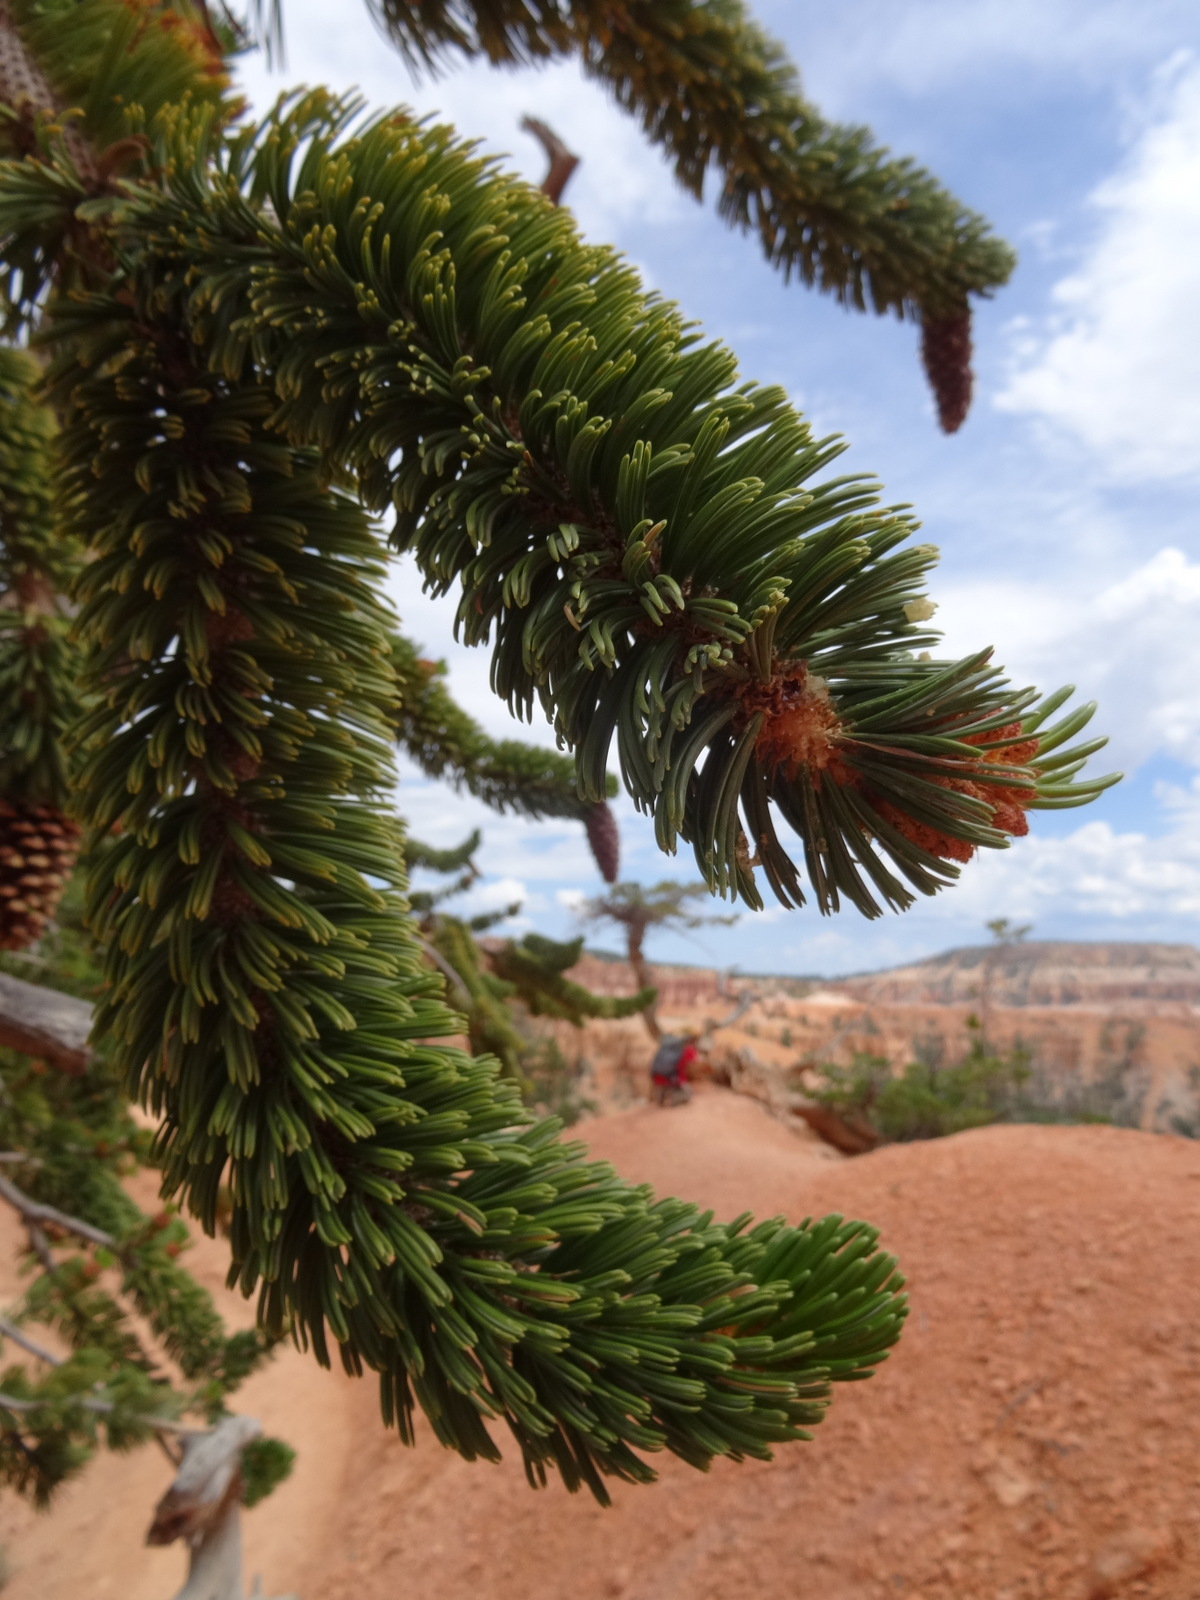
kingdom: Plantae
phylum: Tracheophyta
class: Pinopsida
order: Pinales
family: Pinaceae
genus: Pinus
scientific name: Pinus longaeva
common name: Intermountain bristlecone pine
